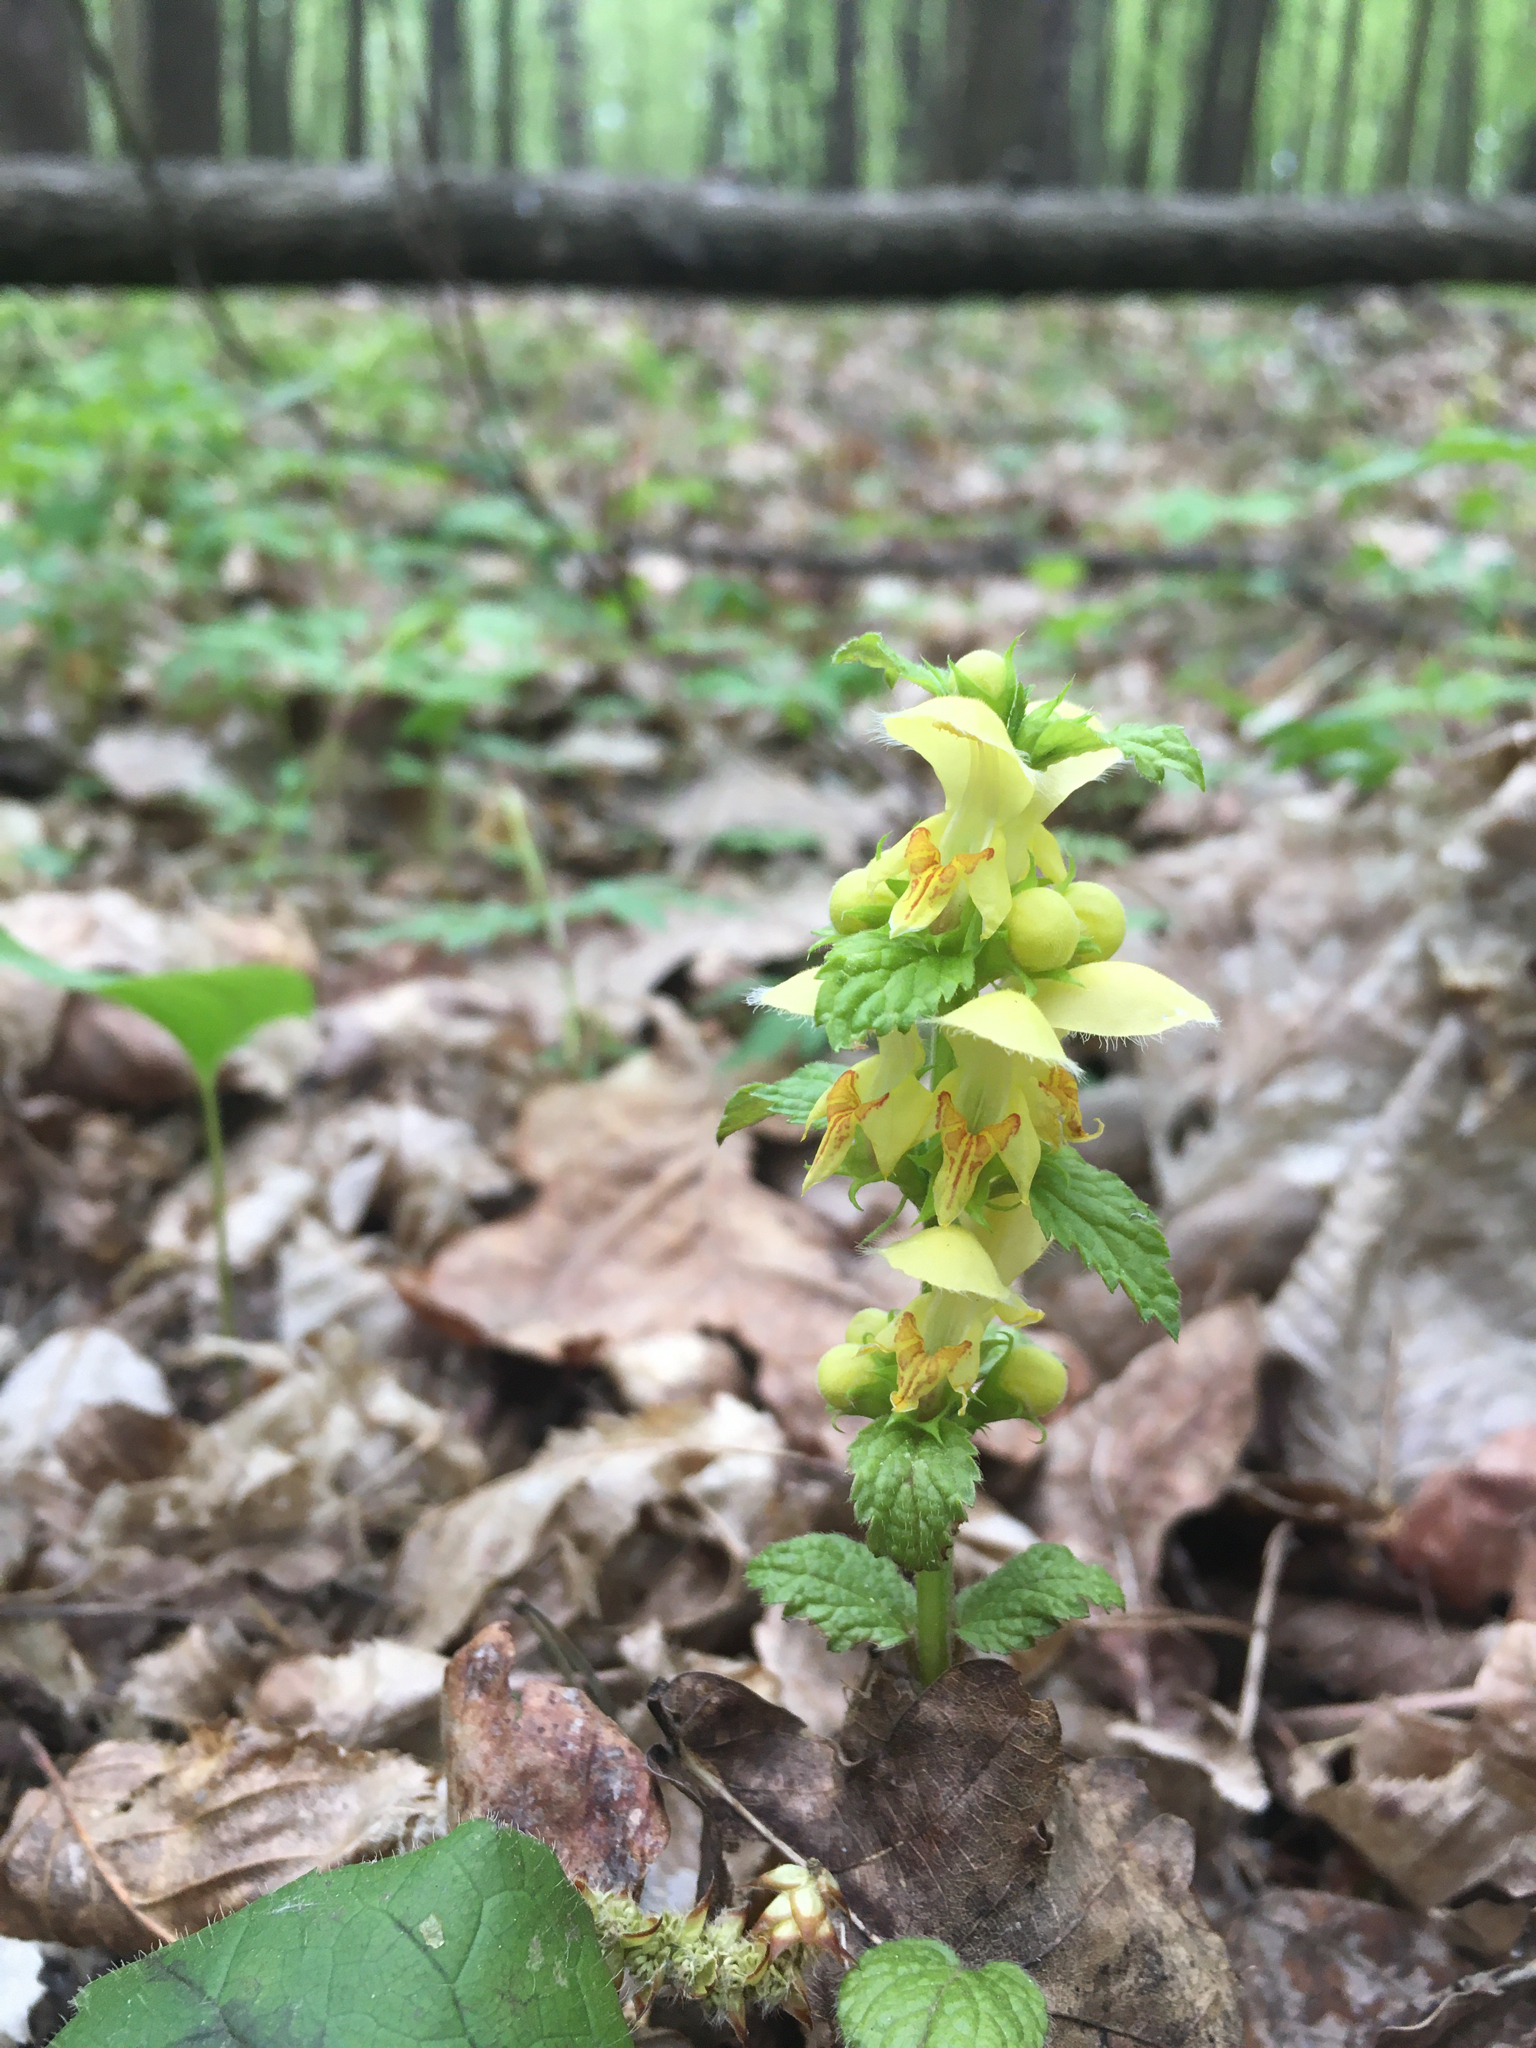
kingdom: Plantae
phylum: Tracheophyta
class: Magnoliopsida
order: Lamiales
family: Lamiaceae
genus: Lamium
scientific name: Lamium galeobdolon
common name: Yellow archangel
